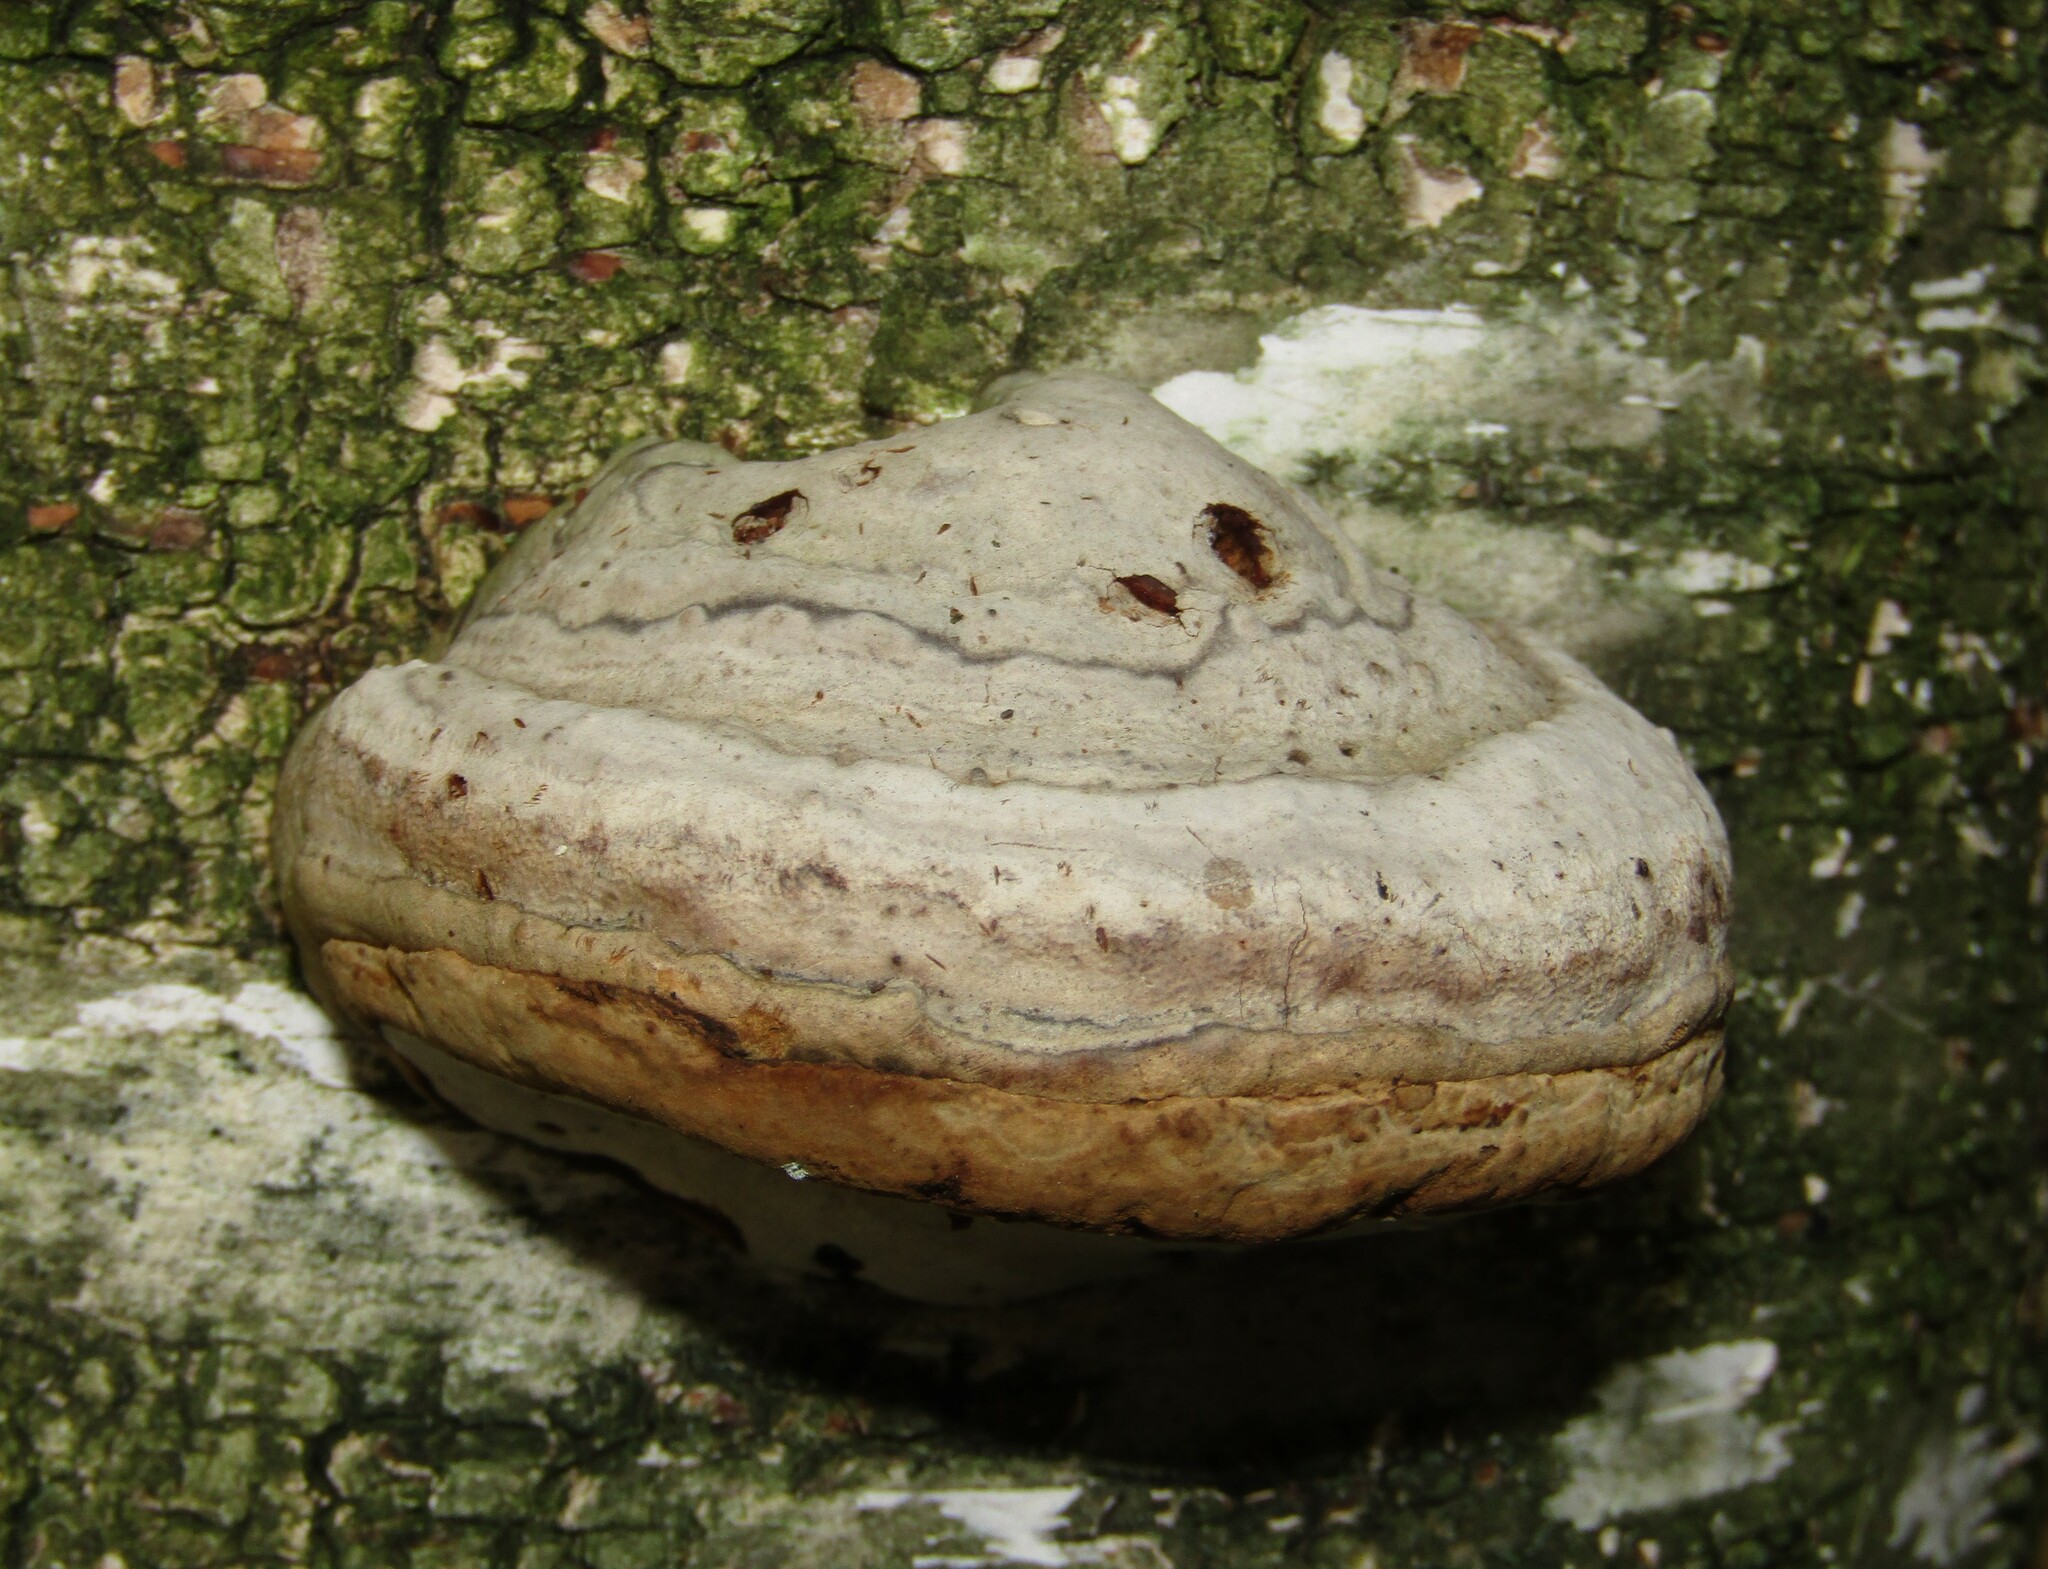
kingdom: Fungi
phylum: Basidiomycota
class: Agaricomycetes
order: Polyporales
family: Polyporaceae
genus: Fomes
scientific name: Fomes fomentarius
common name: Hoof fungus
